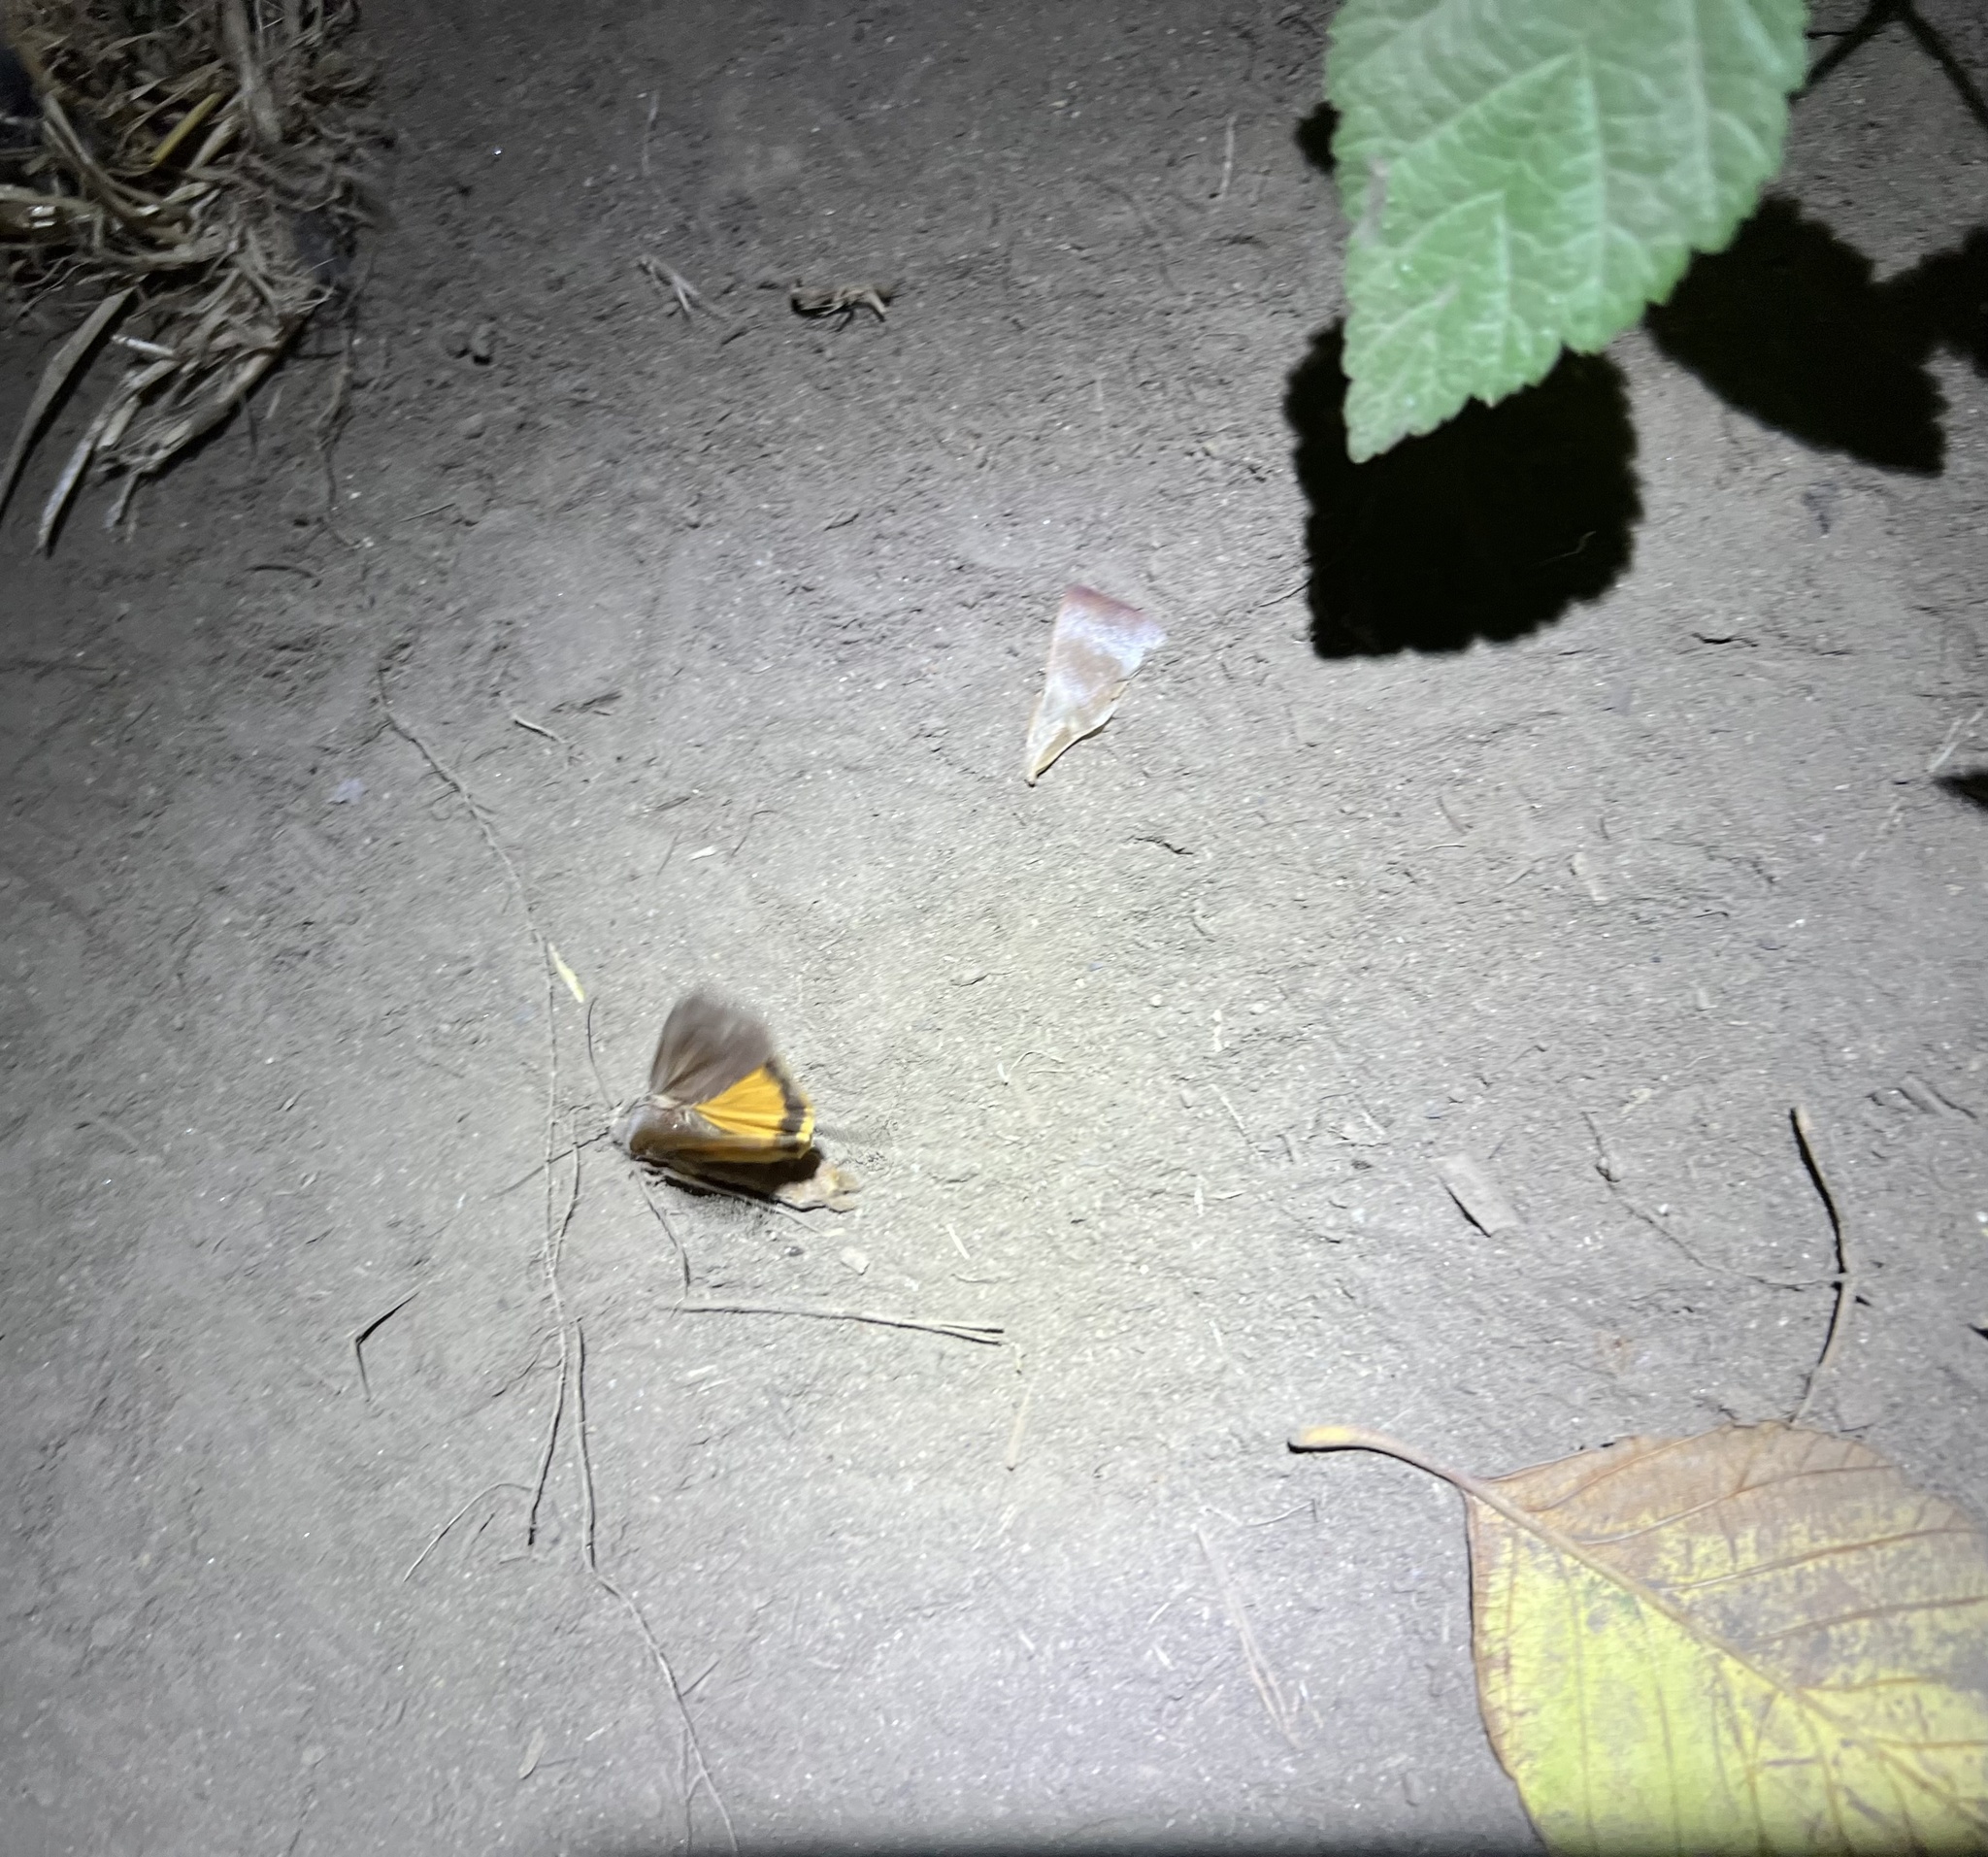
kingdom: Animalia
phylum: Arthropoda
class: Insecta
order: Lepidoptera
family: Noctuidae
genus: Noctua
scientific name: Noctua pronuba
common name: Large yellow underwing
